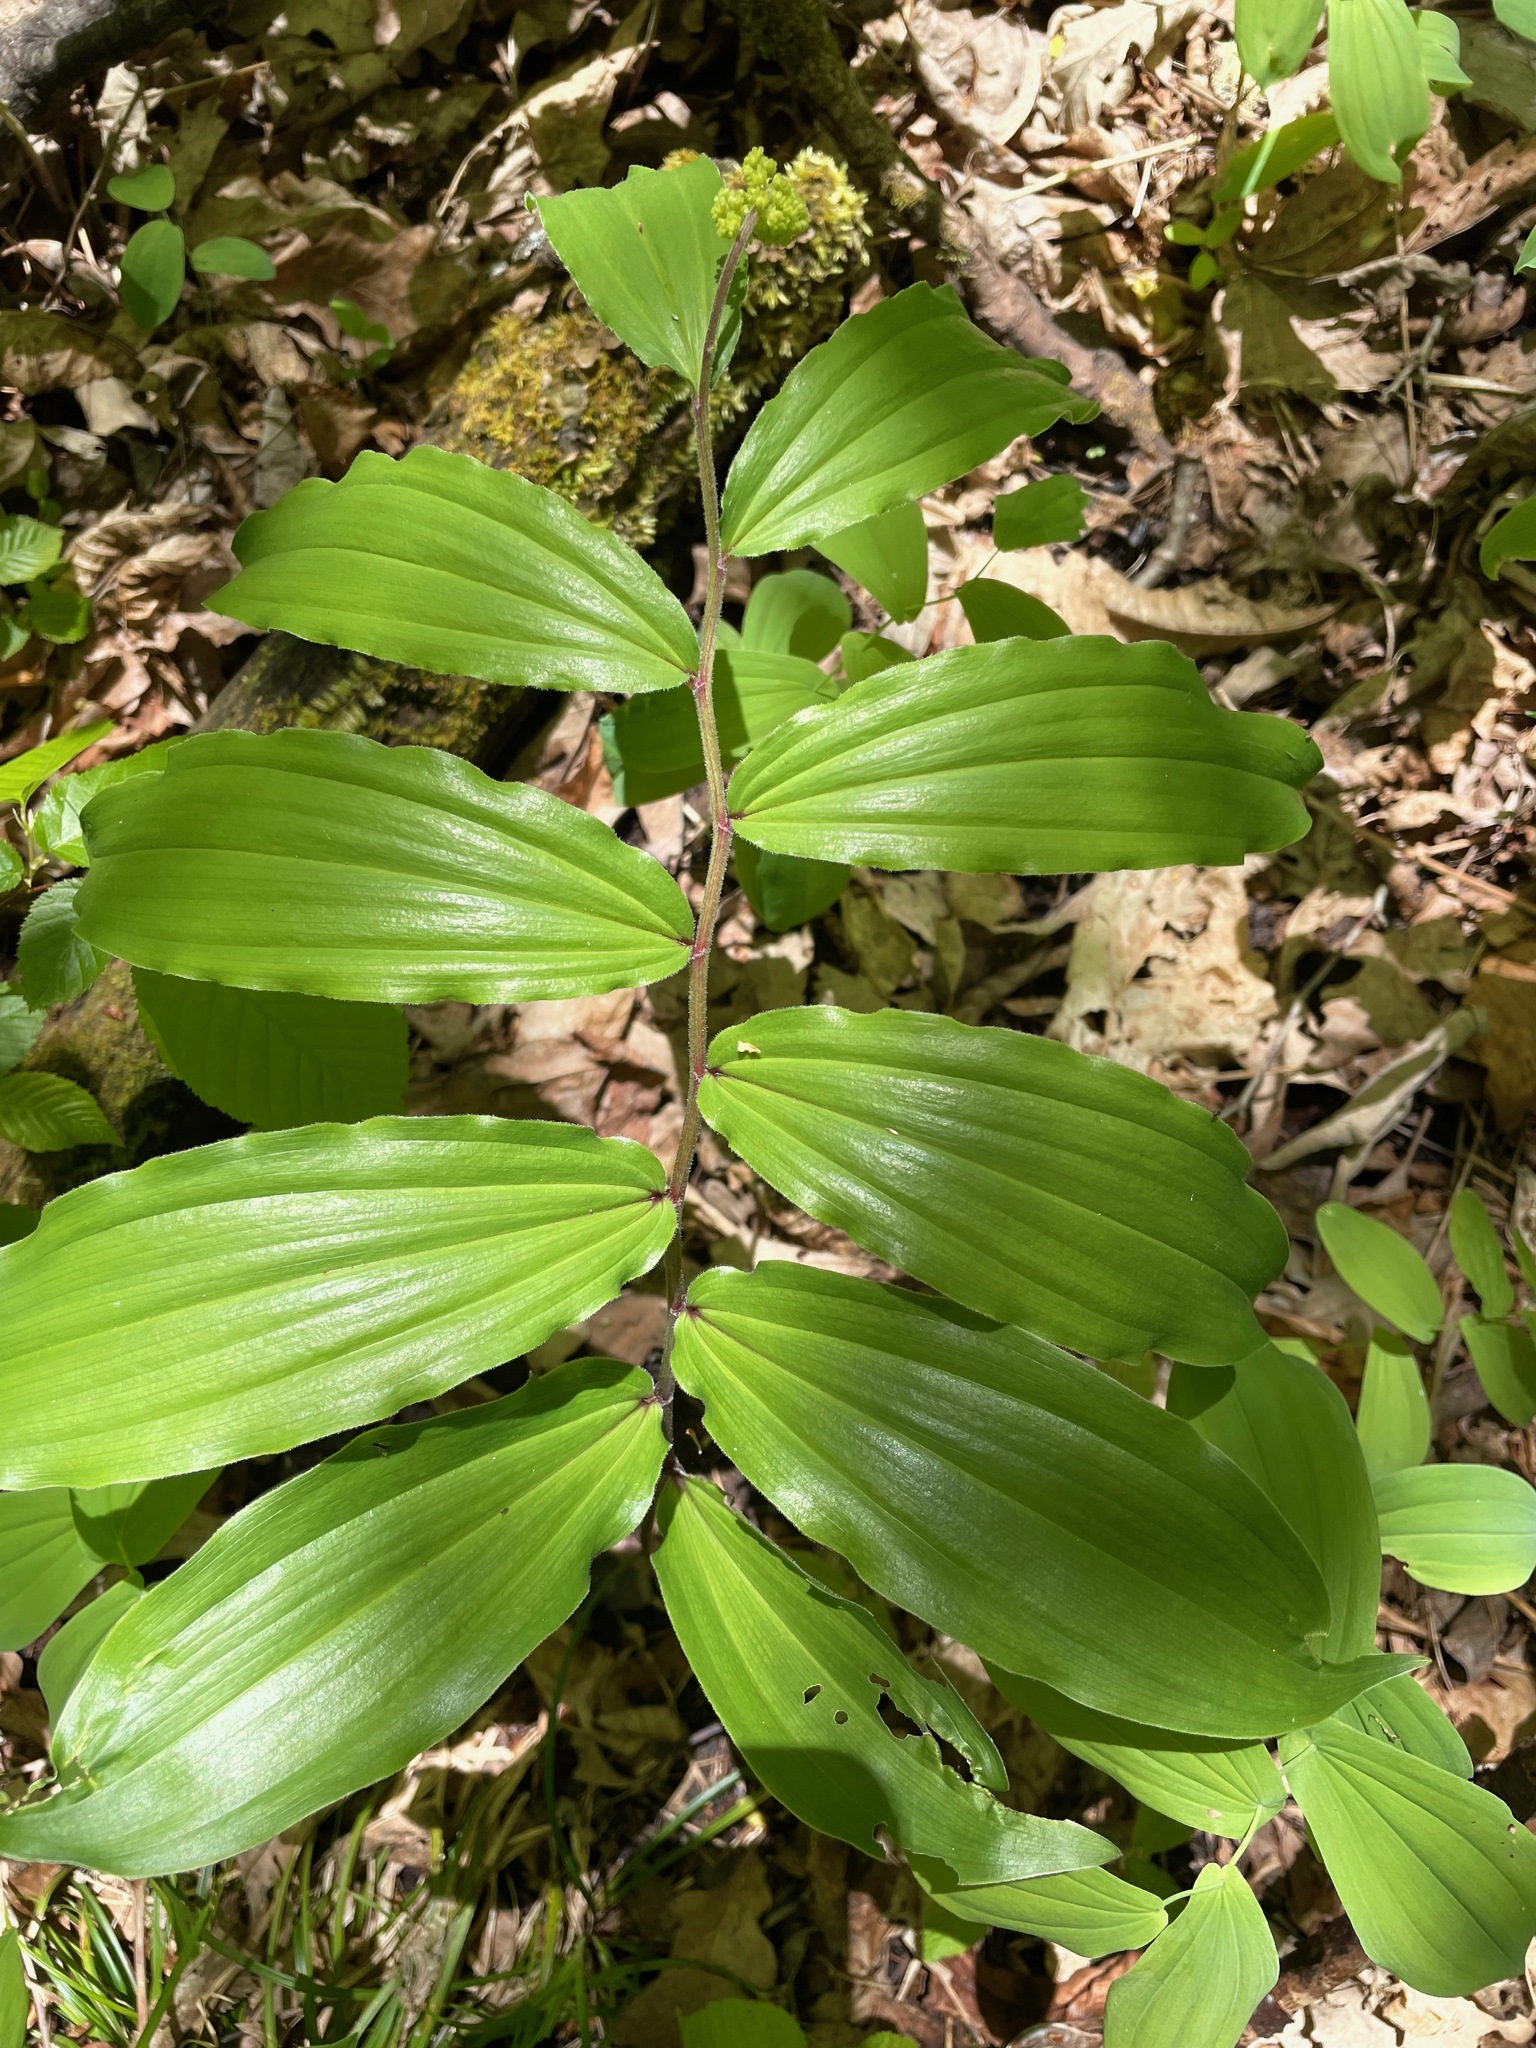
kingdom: Plantae
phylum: Tracheophyta
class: Liliopsida
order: Asparagales
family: Asparagaceae
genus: Maianthemum
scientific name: Maianthemum racemosum
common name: False spikenard
